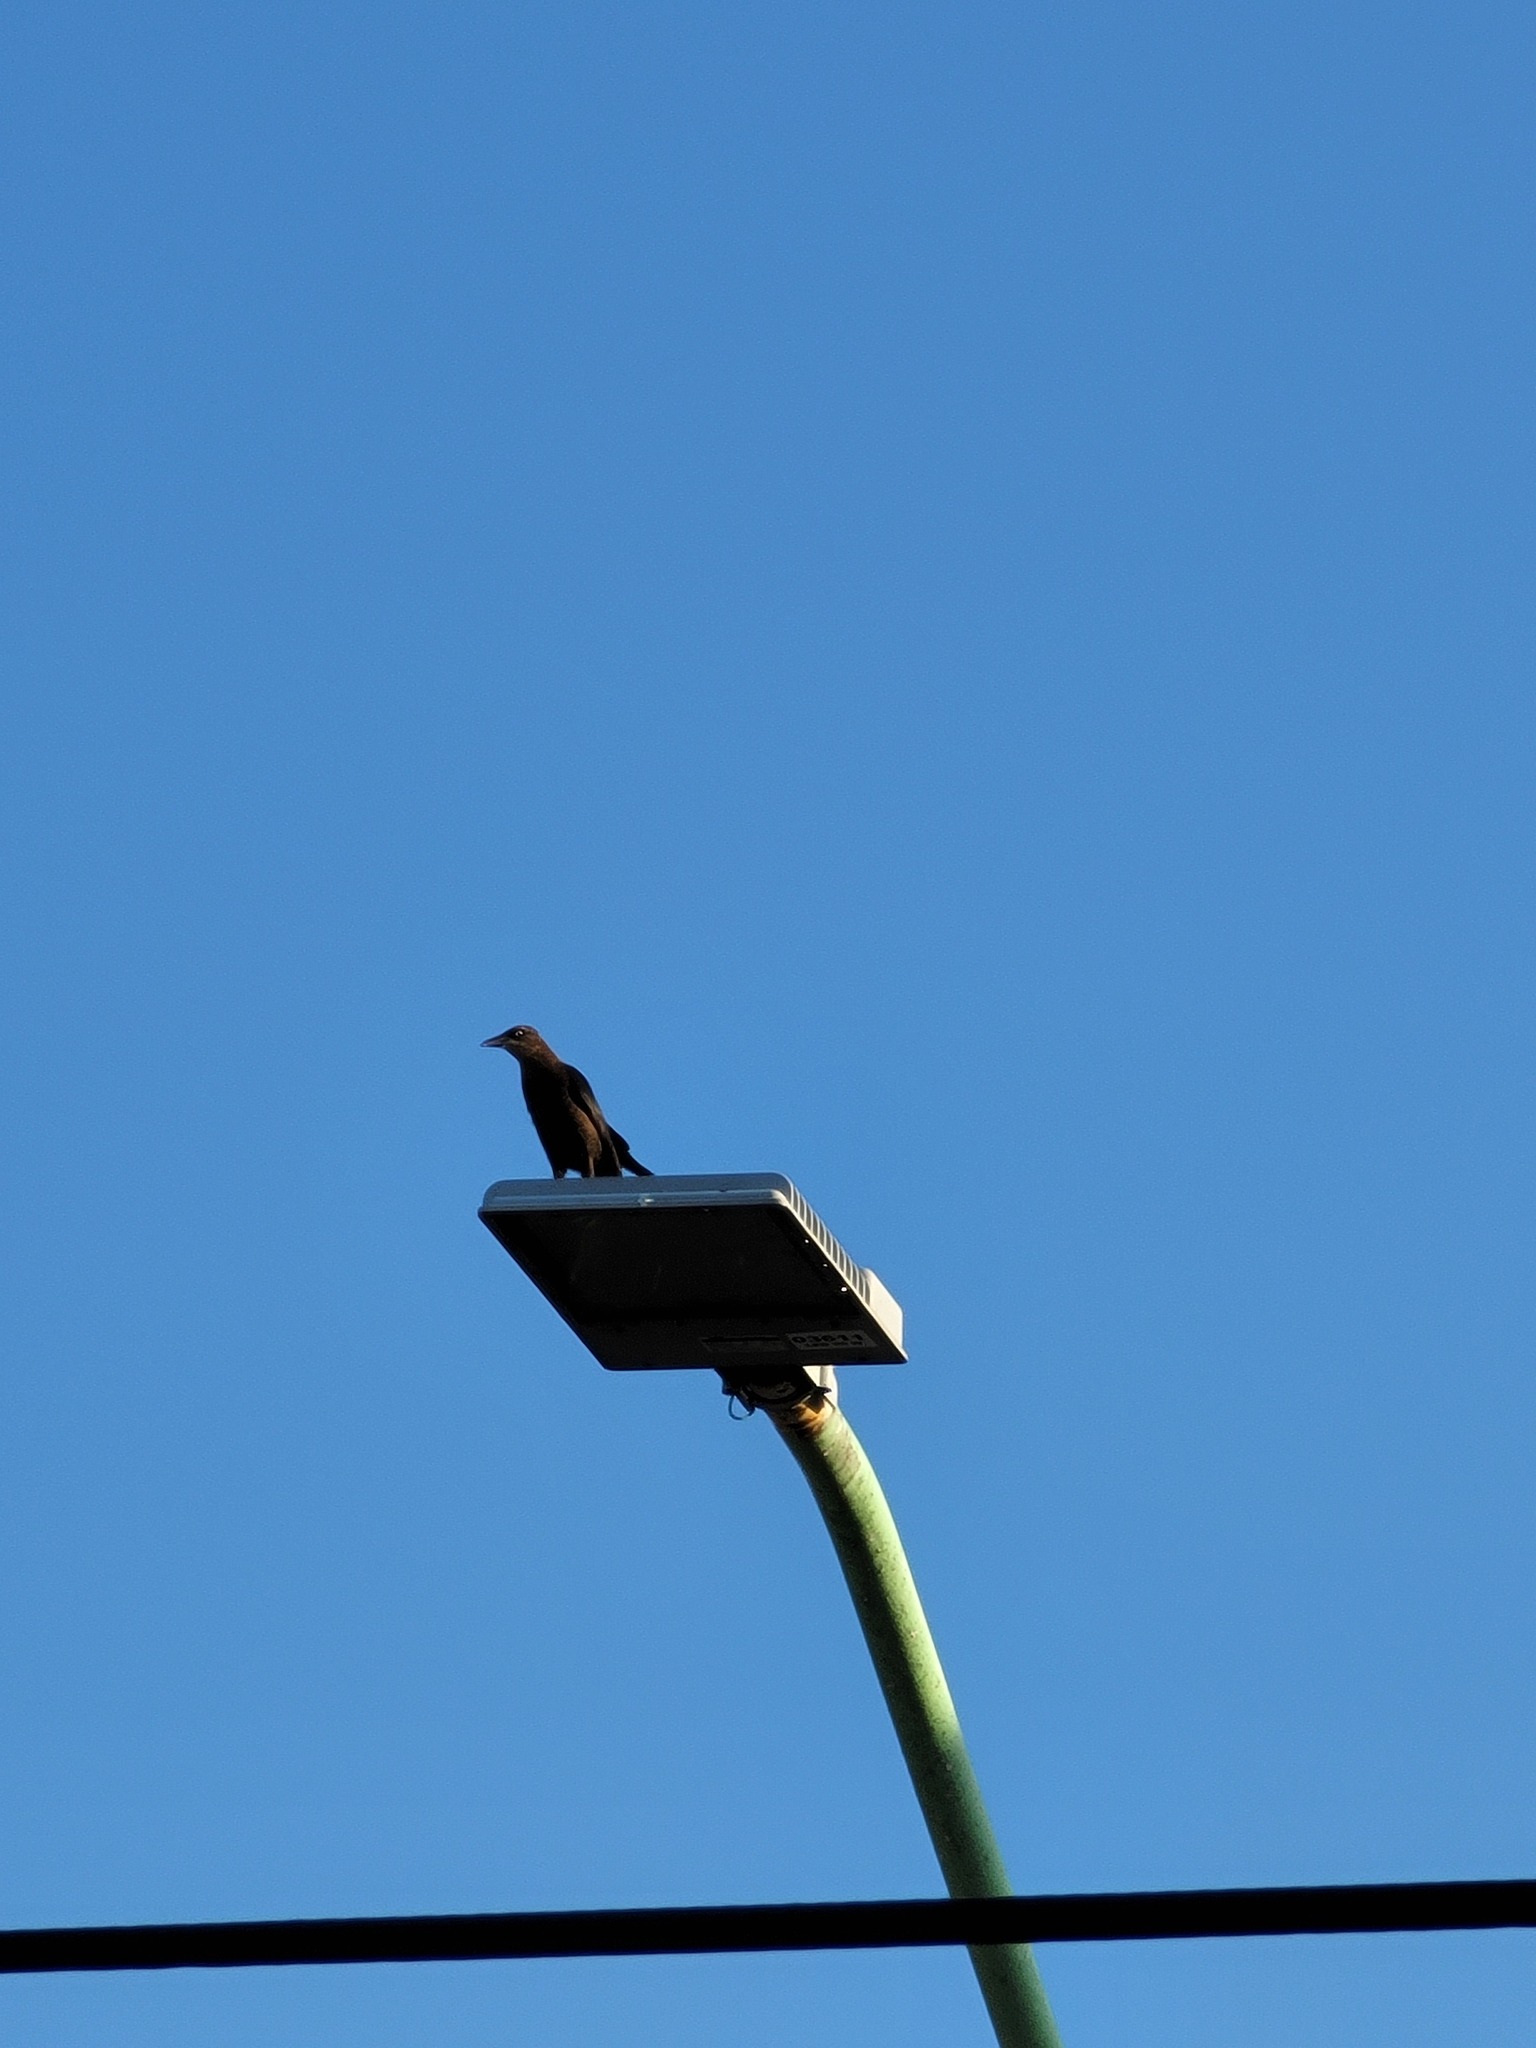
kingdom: Animalia
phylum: Chordata
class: Aves
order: Passeriformes
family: Icteridae
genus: Quiscalus
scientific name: Quiscalus mexicanus
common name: Great-tailed grackle
